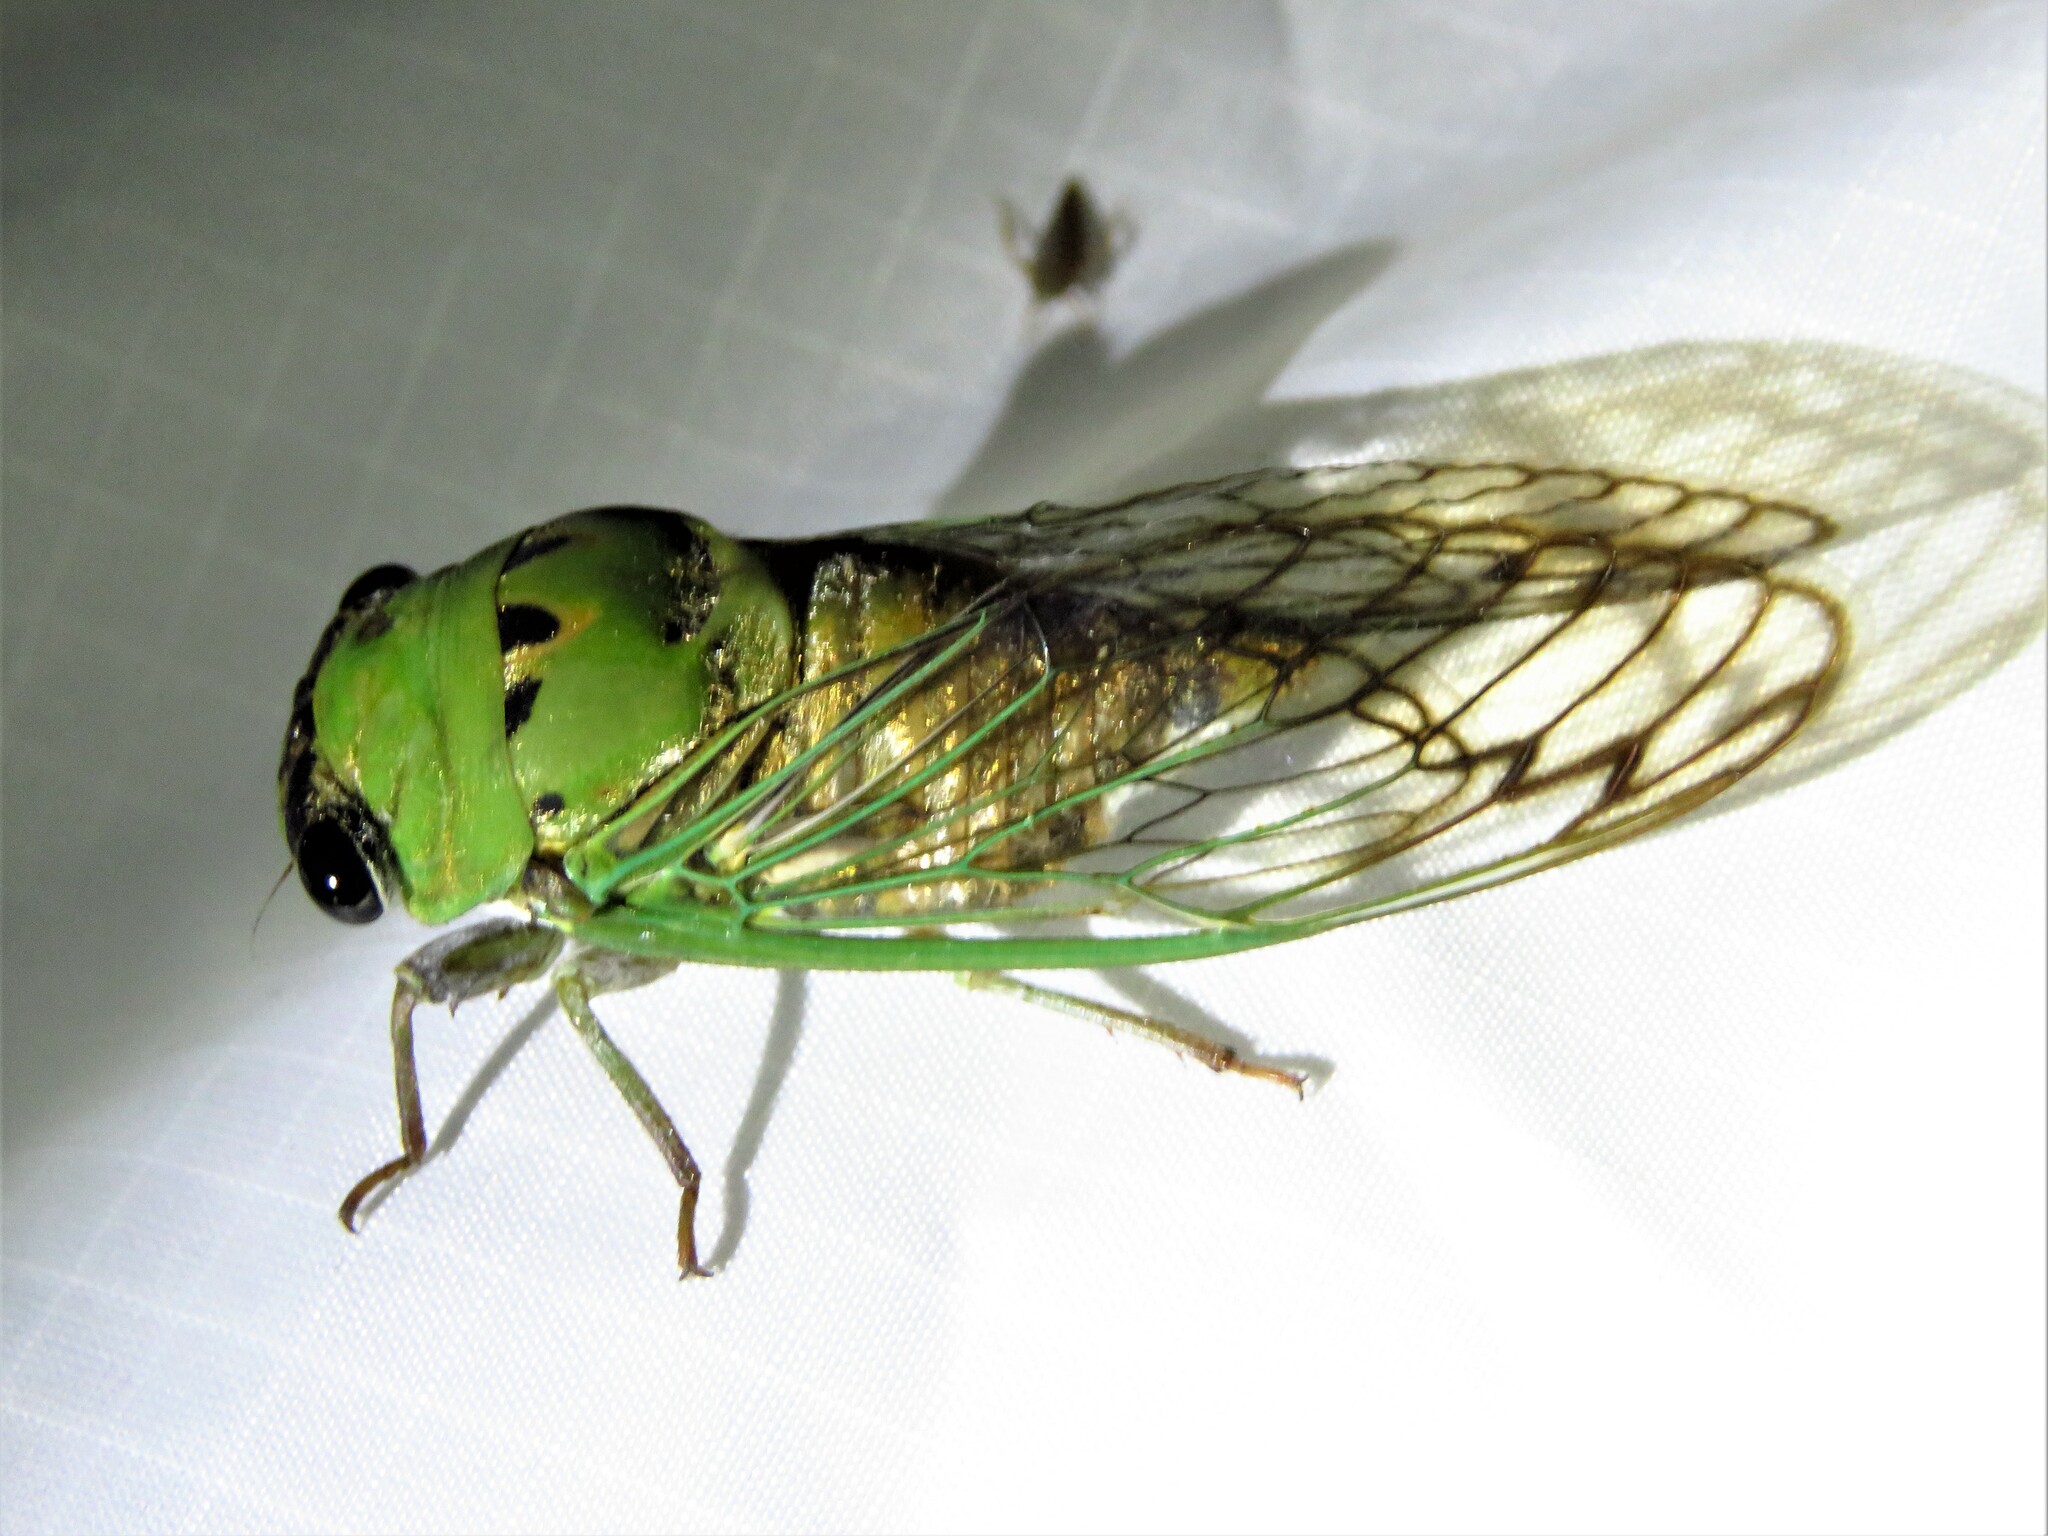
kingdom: Animalia
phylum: Arthropoda
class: Insecta
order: Hemiptera
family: Cicadidae
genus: Neotibicen
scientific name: Neotibicen superbus
